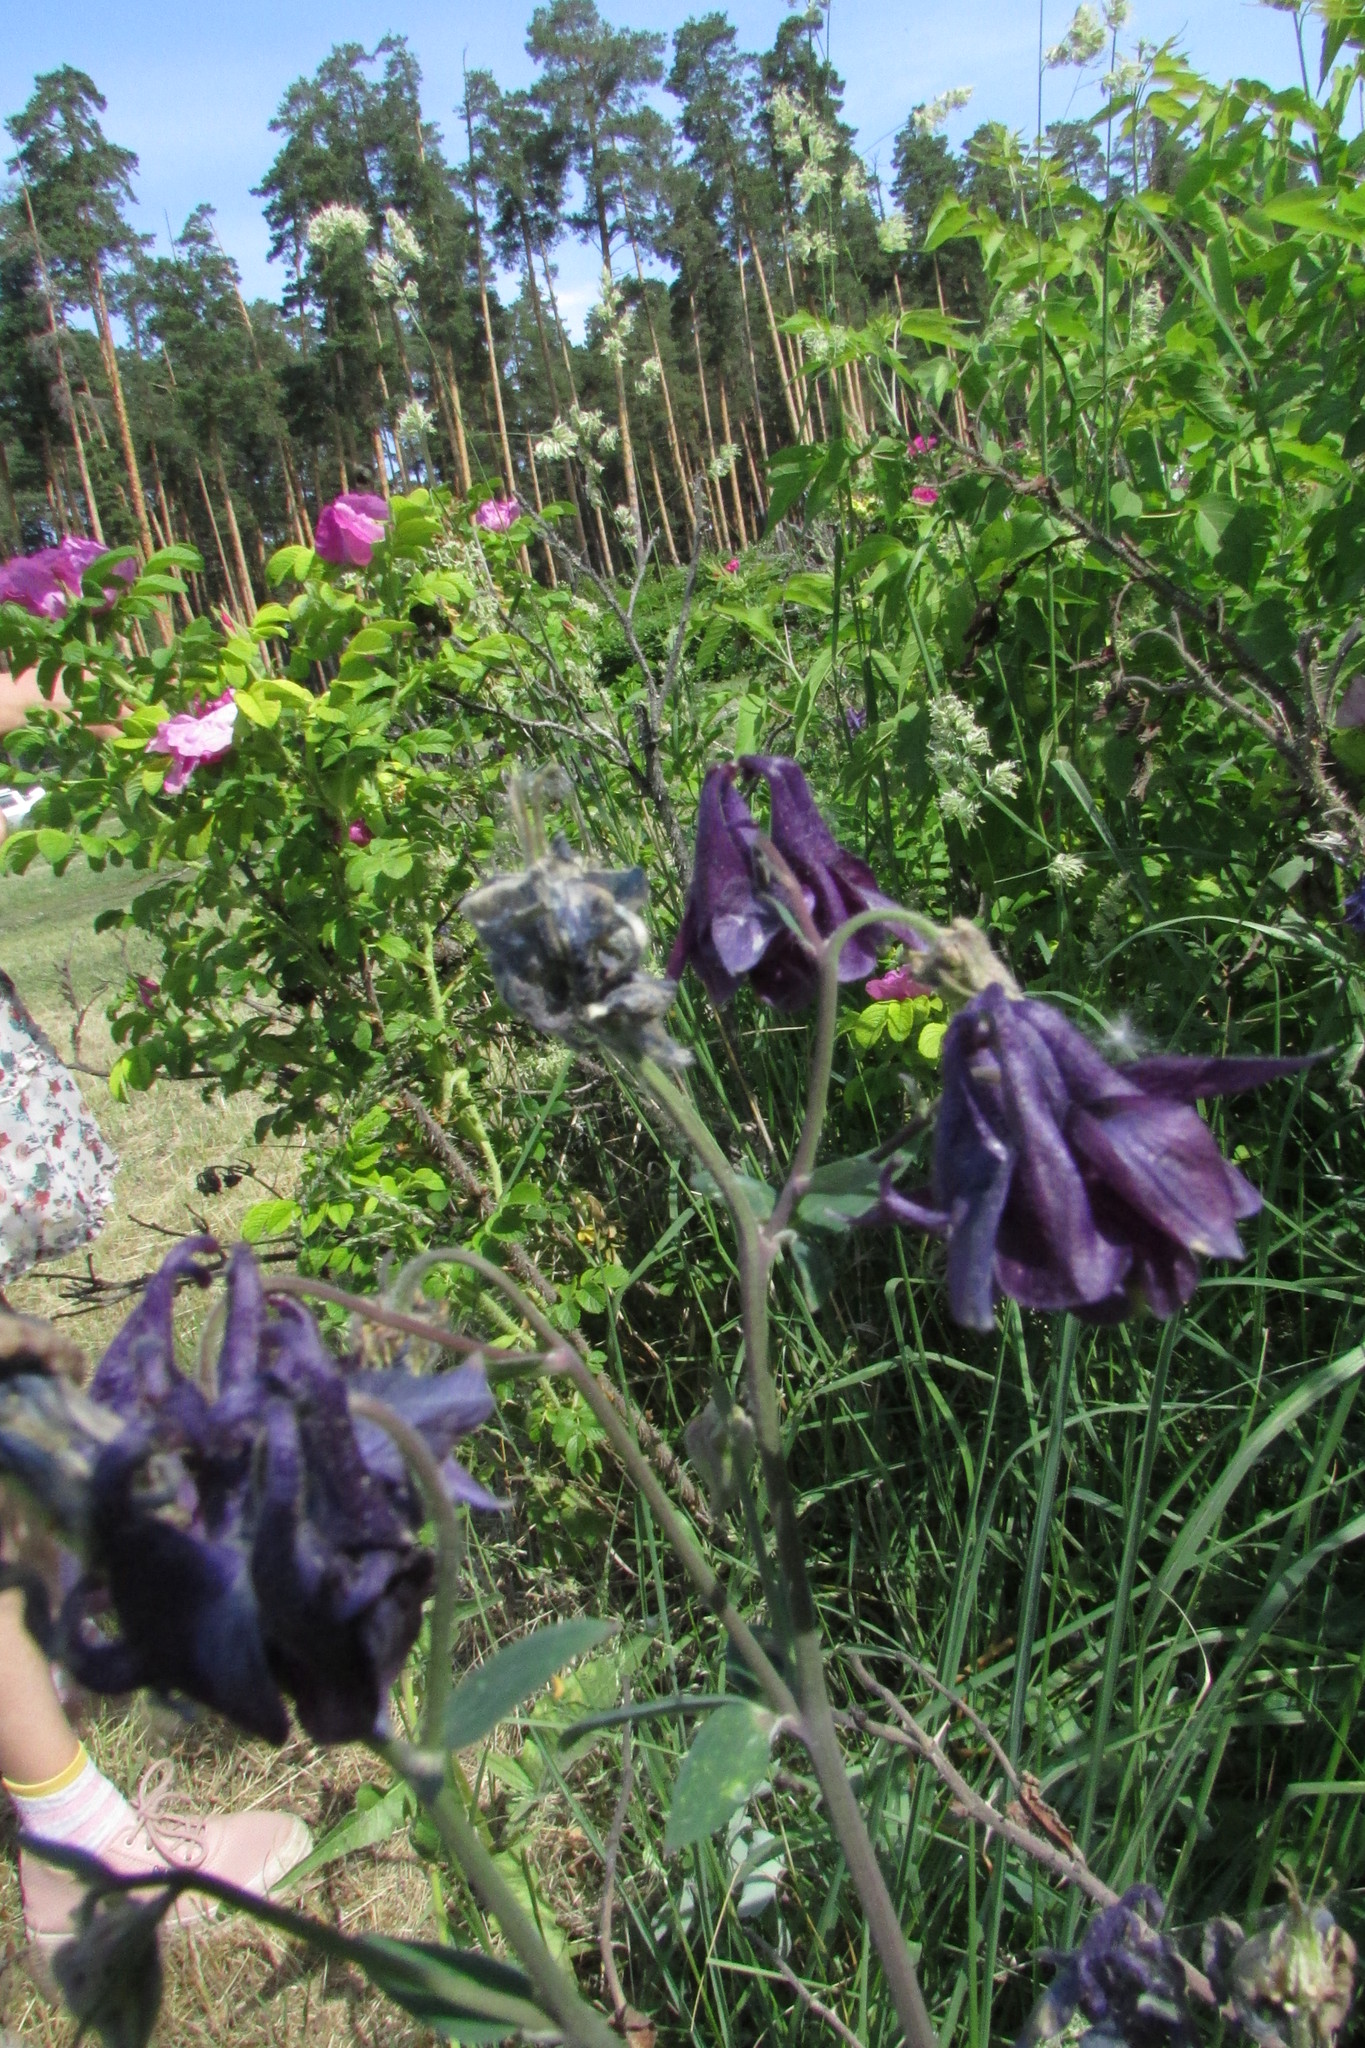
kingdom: Plantae
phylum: Tracheophyta
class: Magnoliopsida
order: Ranunculales
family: Ranunculaceae
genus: Aquilegia
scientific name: Aquilegia vulgaris
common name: Columbine
